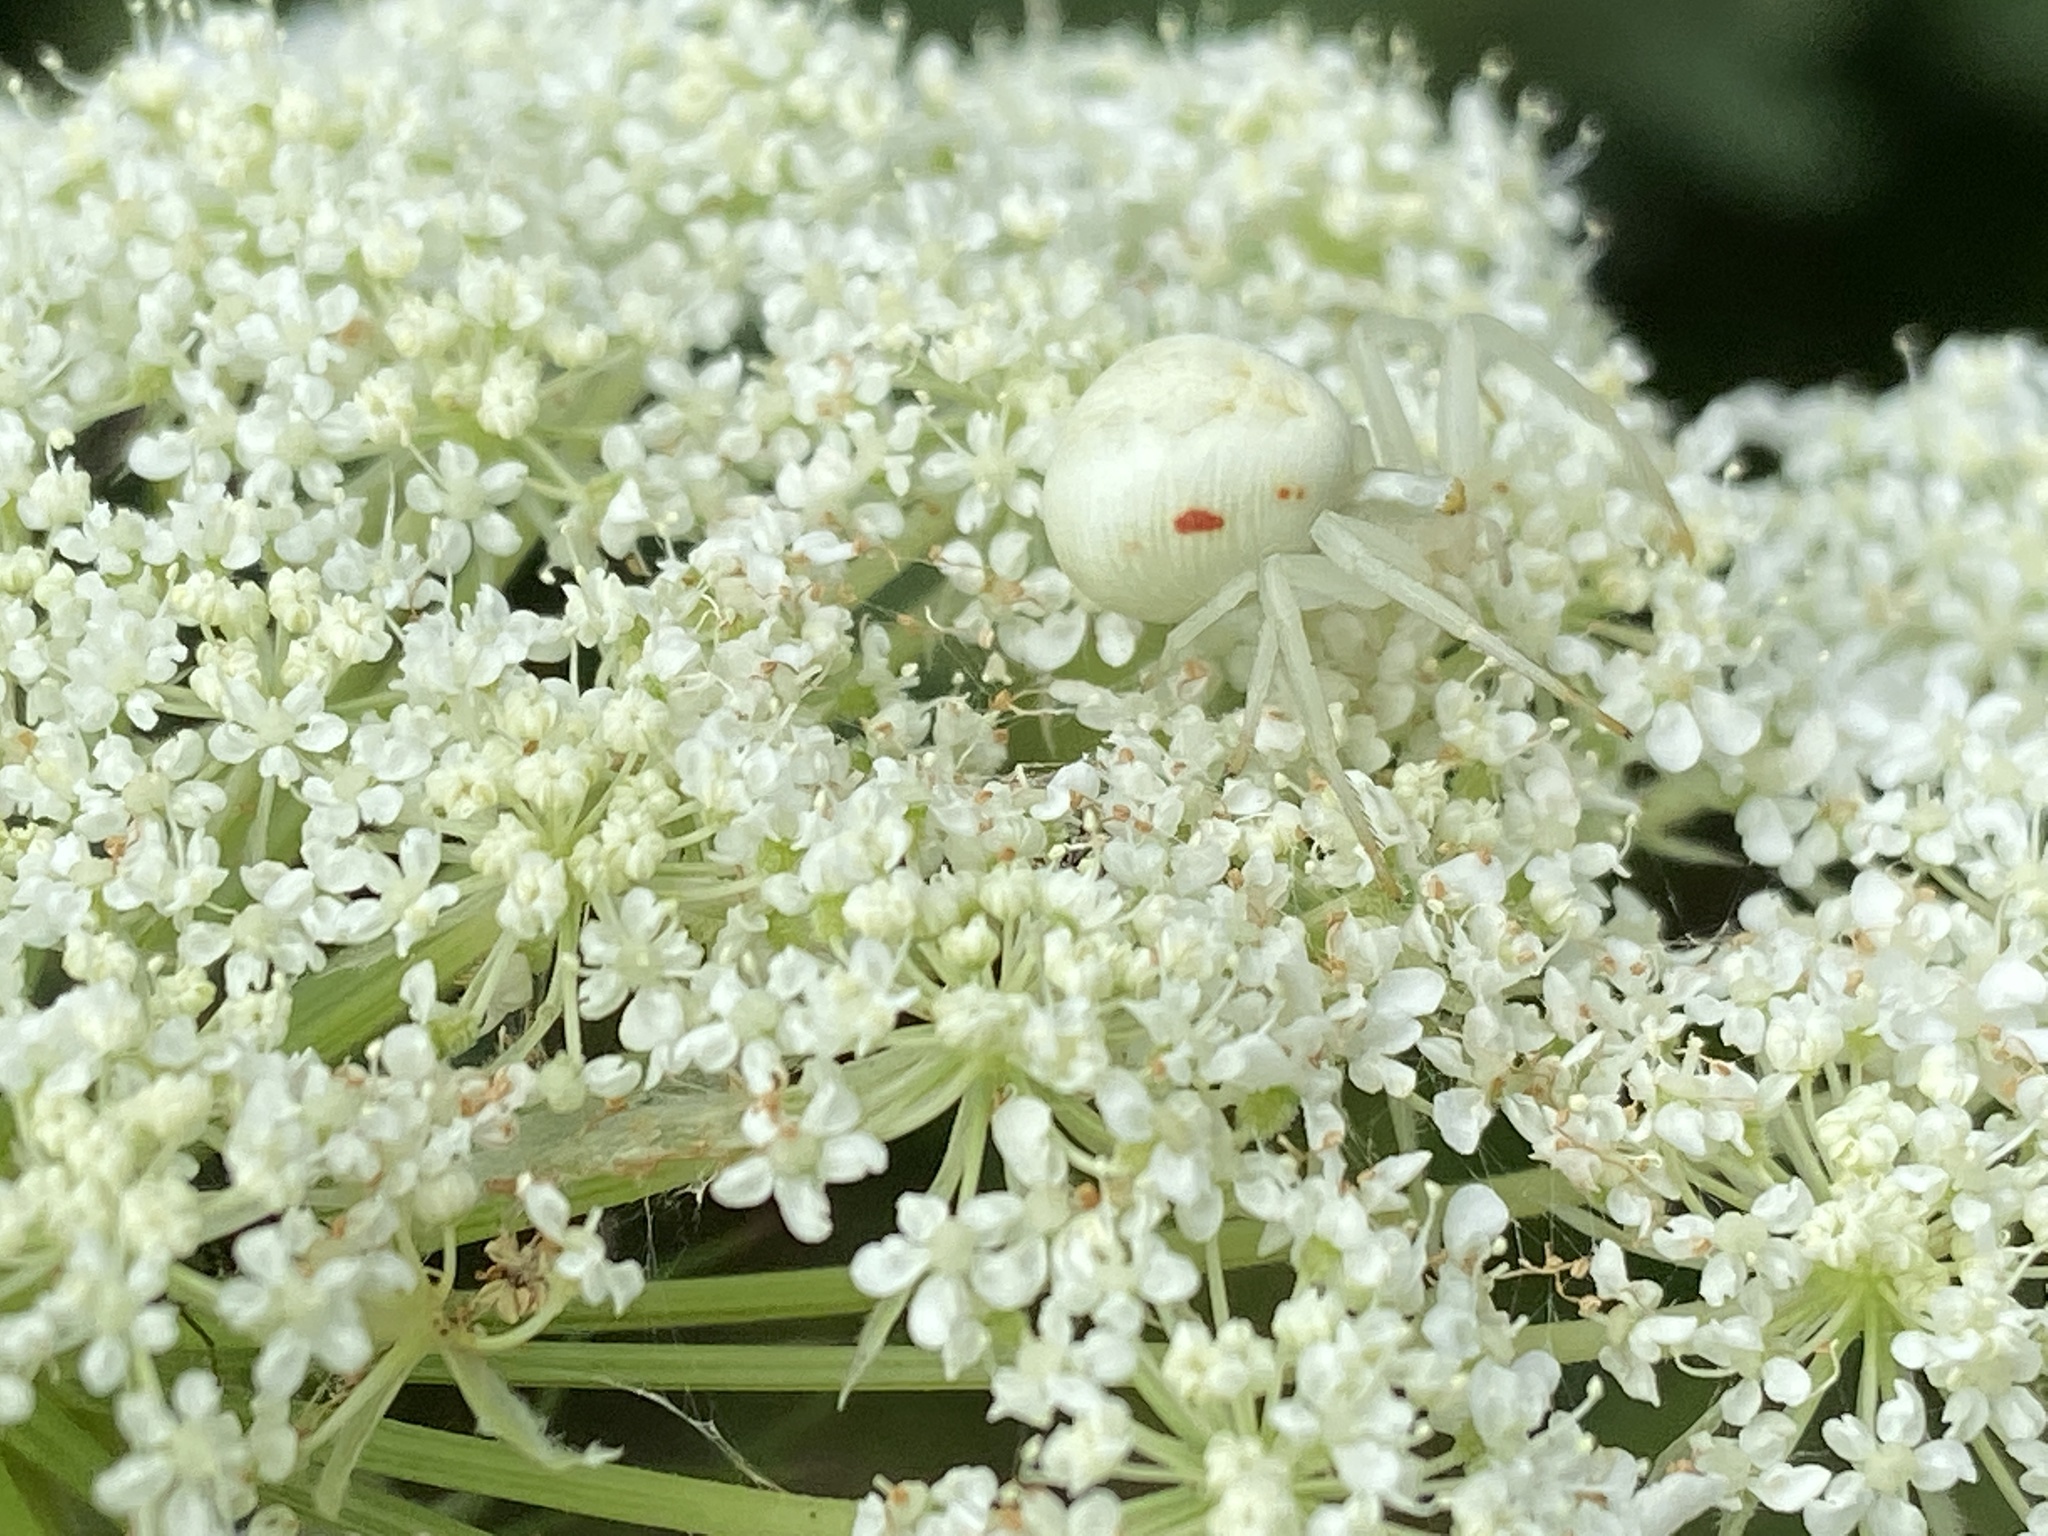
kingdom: Animalia
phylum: Arthropoda
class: Arachnida
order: Araneae
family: Thomisidae
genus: Misumena
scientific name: Misumena vatia
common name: Goldenrod crab spider
